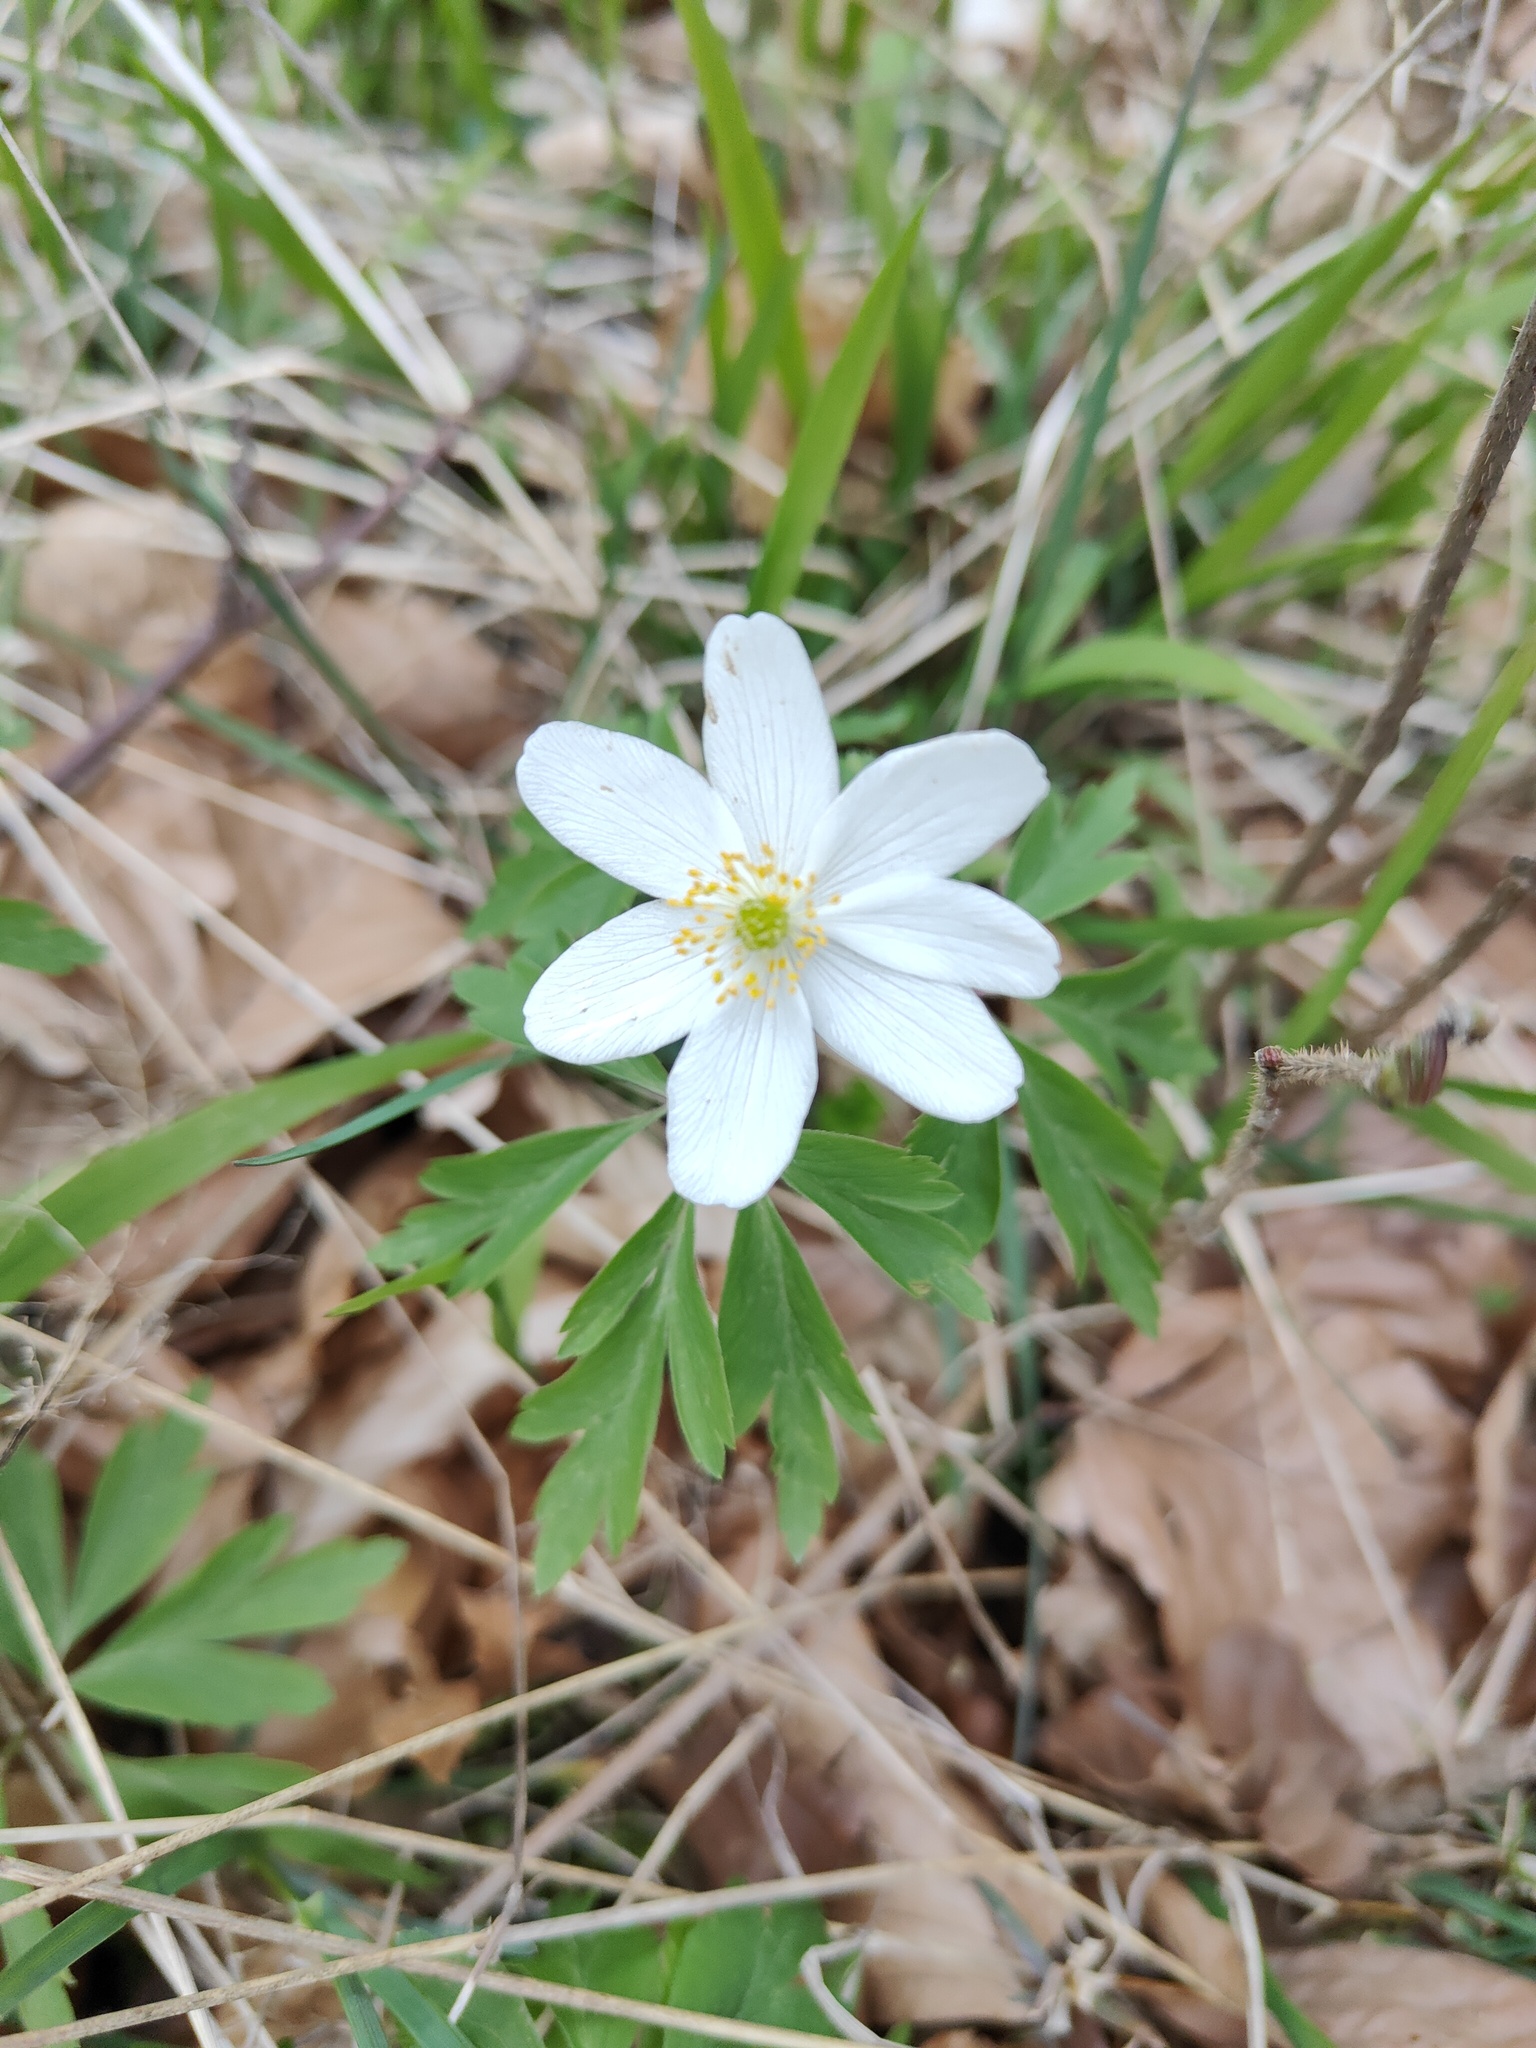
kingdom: Plantae
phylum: Tracheophyta
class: Magnoliopsida
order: Ranunculales
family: Ranunculaceae
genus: Anemone
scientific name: Anemone nemorosa
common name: Wood anemone
